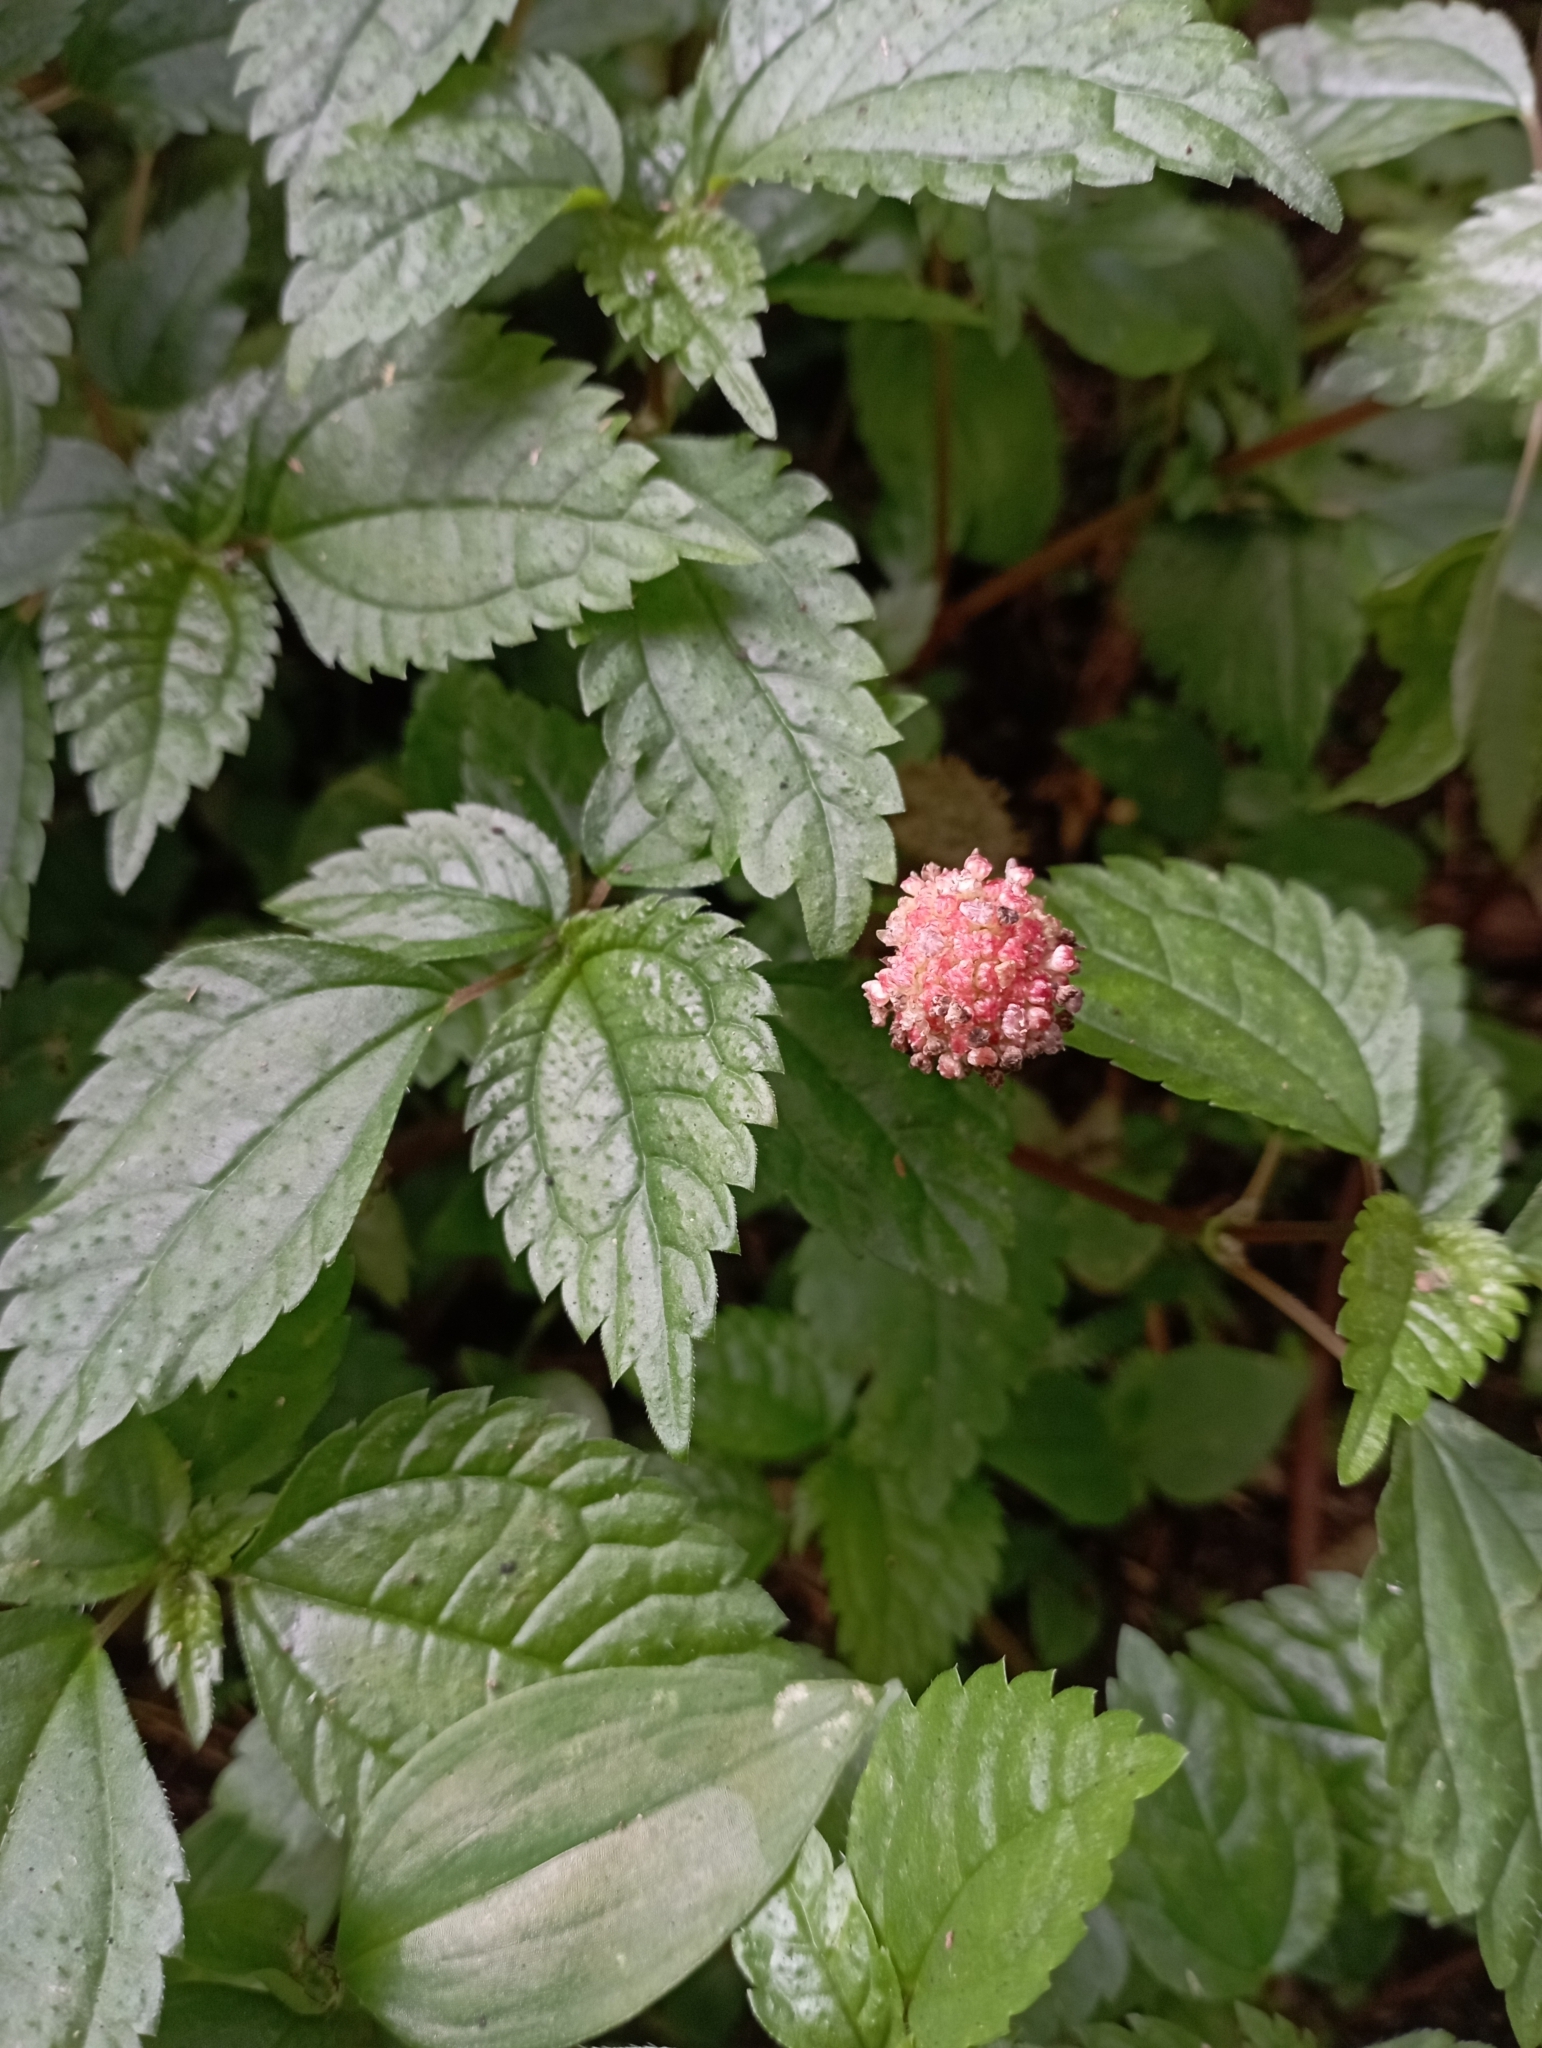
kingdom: Plantae
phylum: Tracheophyta
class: Magnoliopsida
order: Rosales
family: Urticaceae
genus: Lecanthus
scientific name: Lecanthus peduncularis
